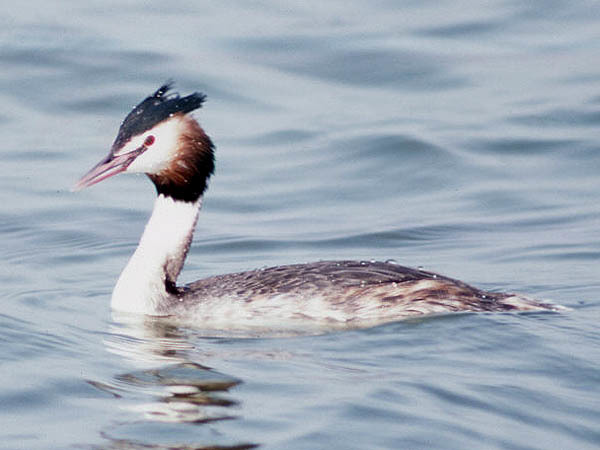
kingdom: Animalia
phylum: Chordata
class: Aves
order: Podicipediformes
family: Podicipedidae
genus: Podiceps
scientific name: Podiceps cristatus
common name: Great crested grebe
